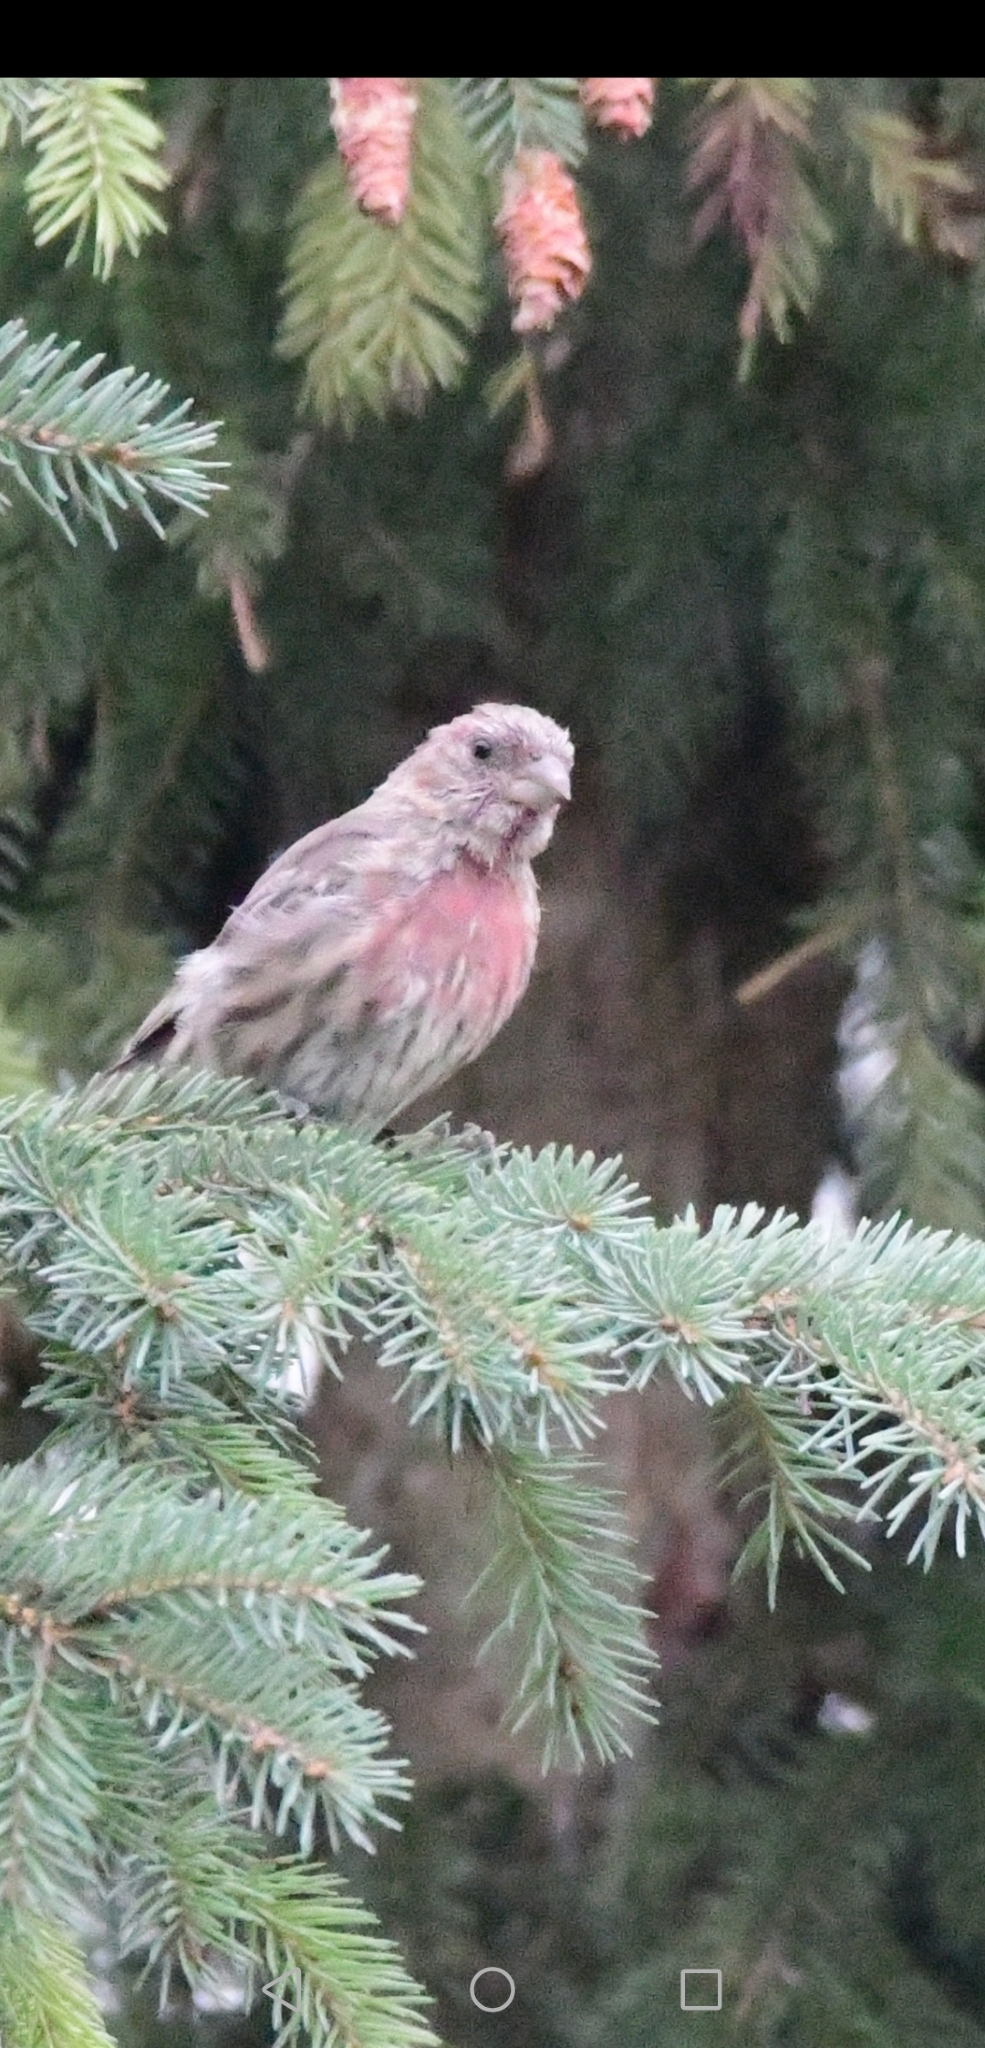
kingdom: Animalia
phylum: Chordata
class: Aves
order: Passeriformes
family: Fringillidae
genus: Haemorhous
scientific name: Haemorhous mexicanus
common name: House finch
